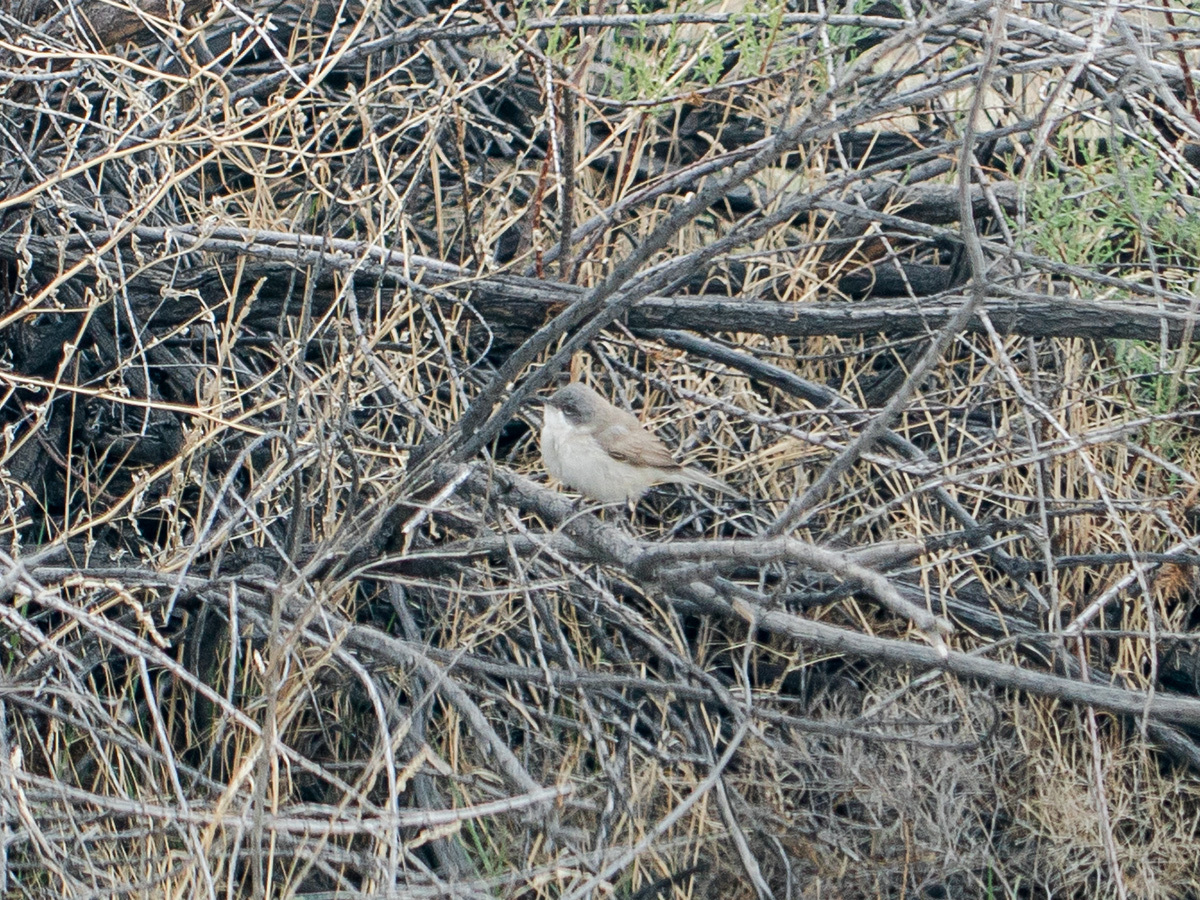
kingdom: Animalia
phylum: Chordata
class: Aves
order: Passeriformes
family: Sylviidae
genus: Sylvia
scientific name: Sylvia curruca
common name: Lesser whitethroat
